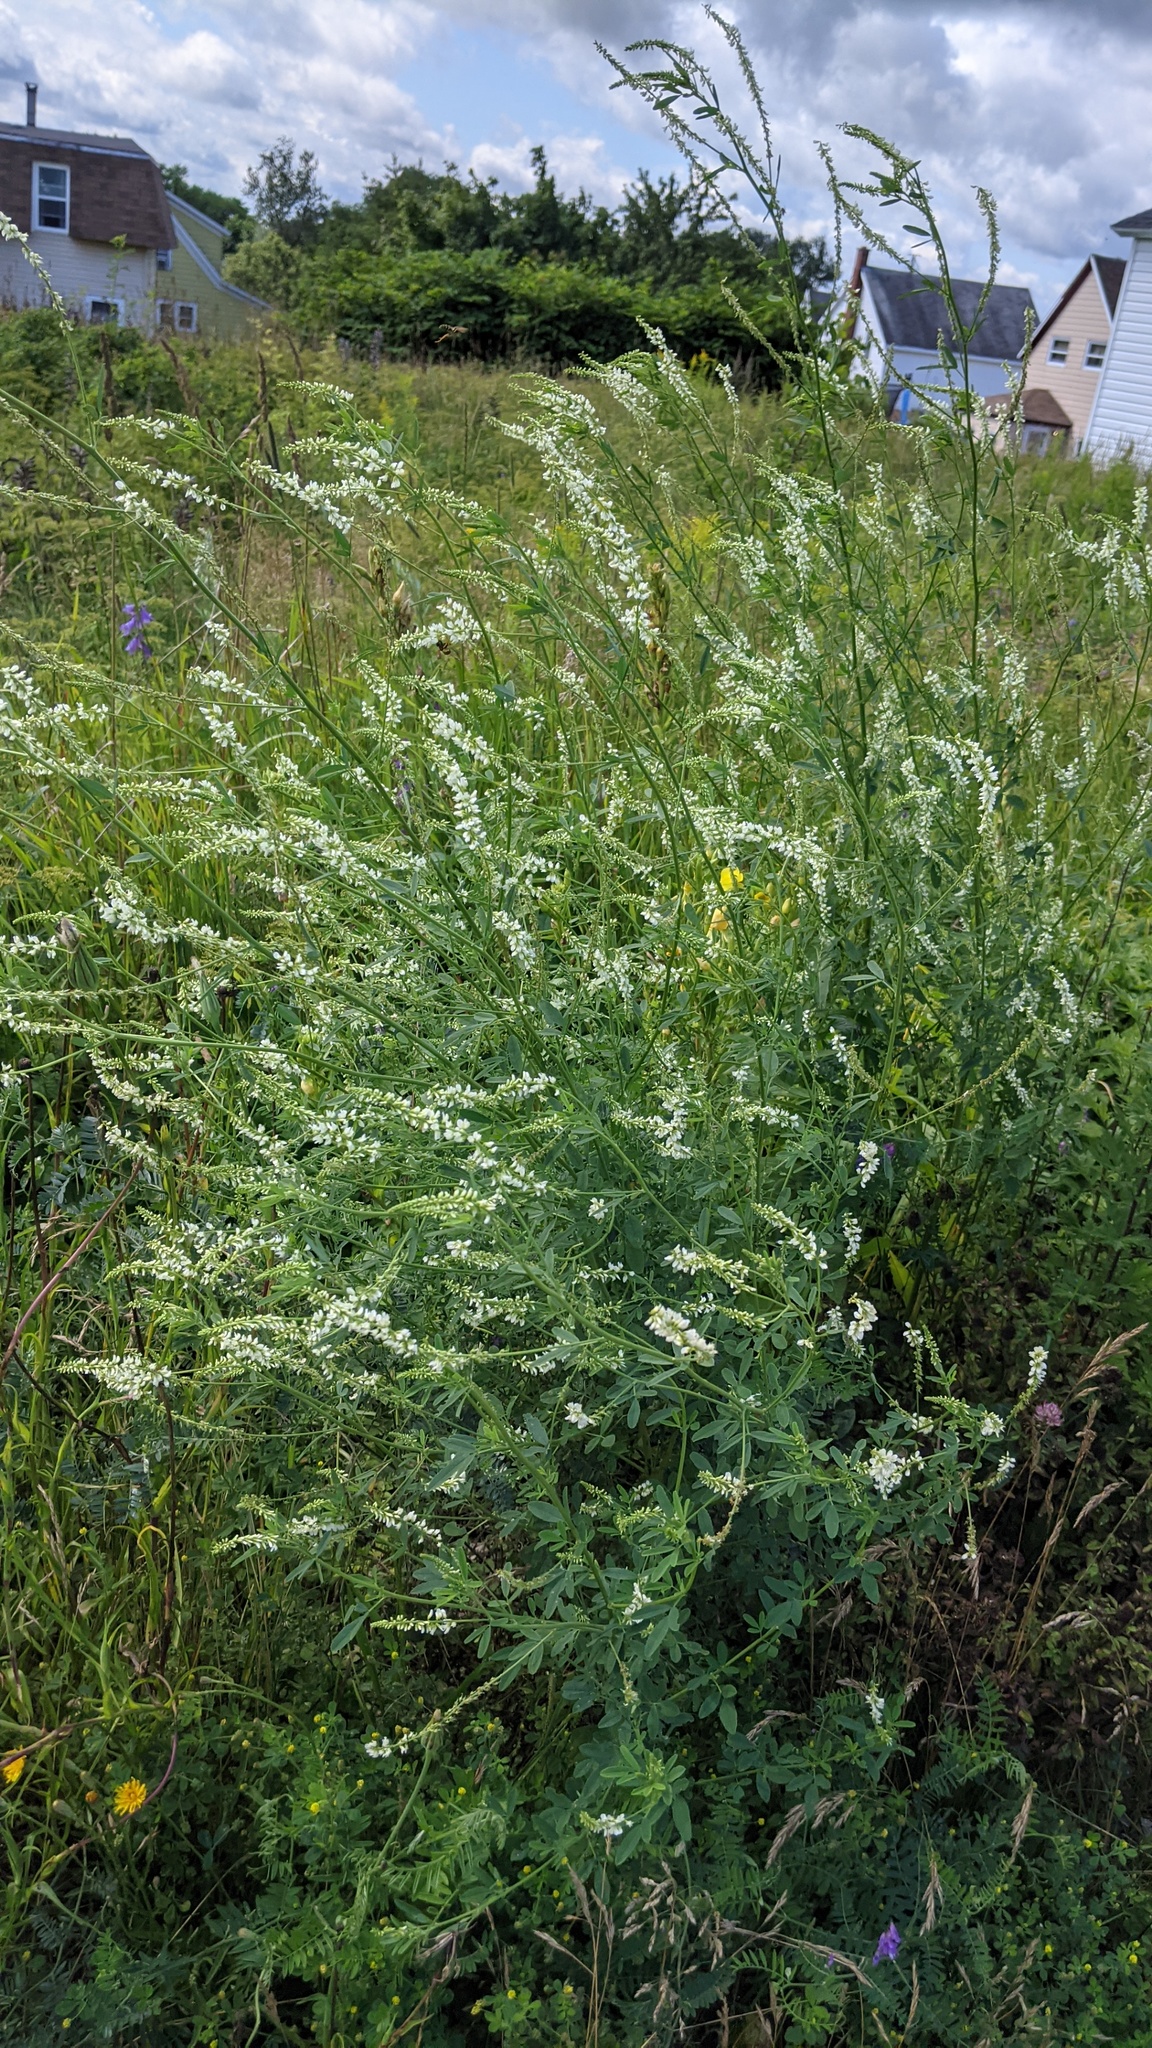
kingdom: Plantae
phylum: Tracheophyta
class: Magnoliopsida
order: Fabales
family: Fabaceae
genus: Melilotus
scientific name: Melilotus albus
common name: White melilot
